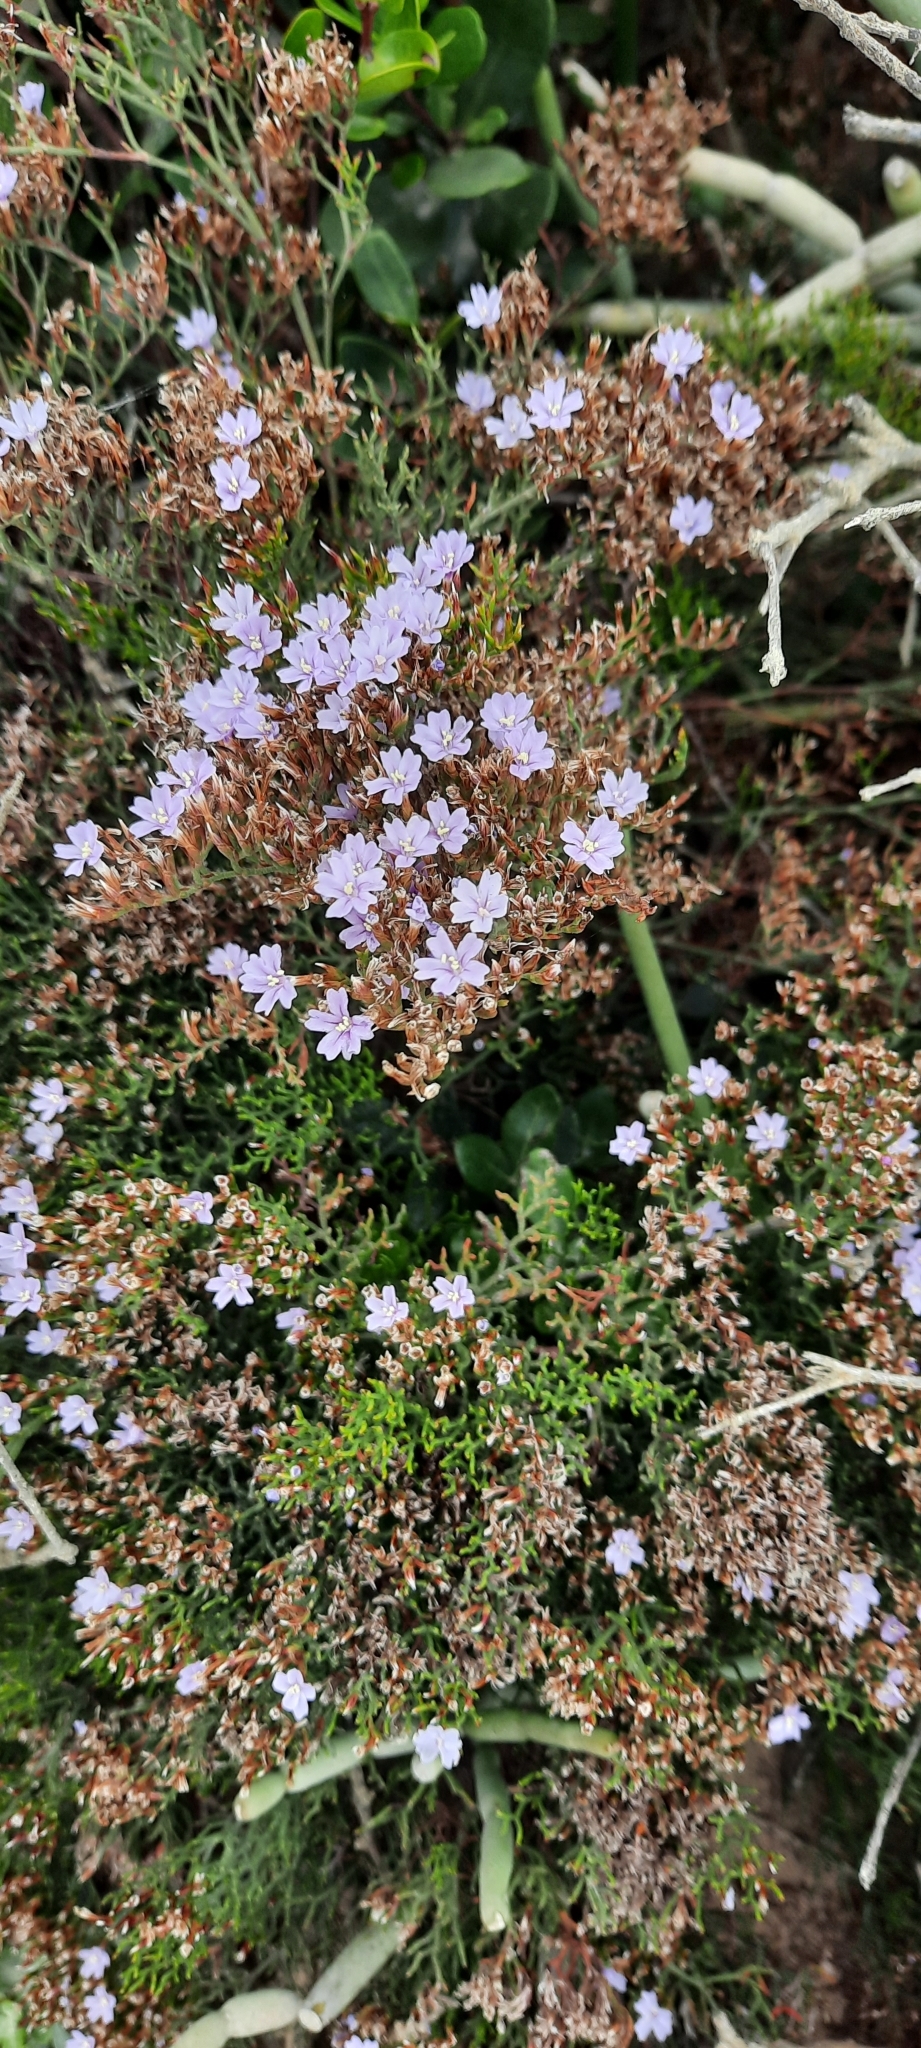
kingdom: Plantae
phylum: Tracheophyta
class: Magnoliopsida
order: Caryophyllales
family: Plumbaginaceae
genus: Limonium
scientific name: Limonium scabrum
